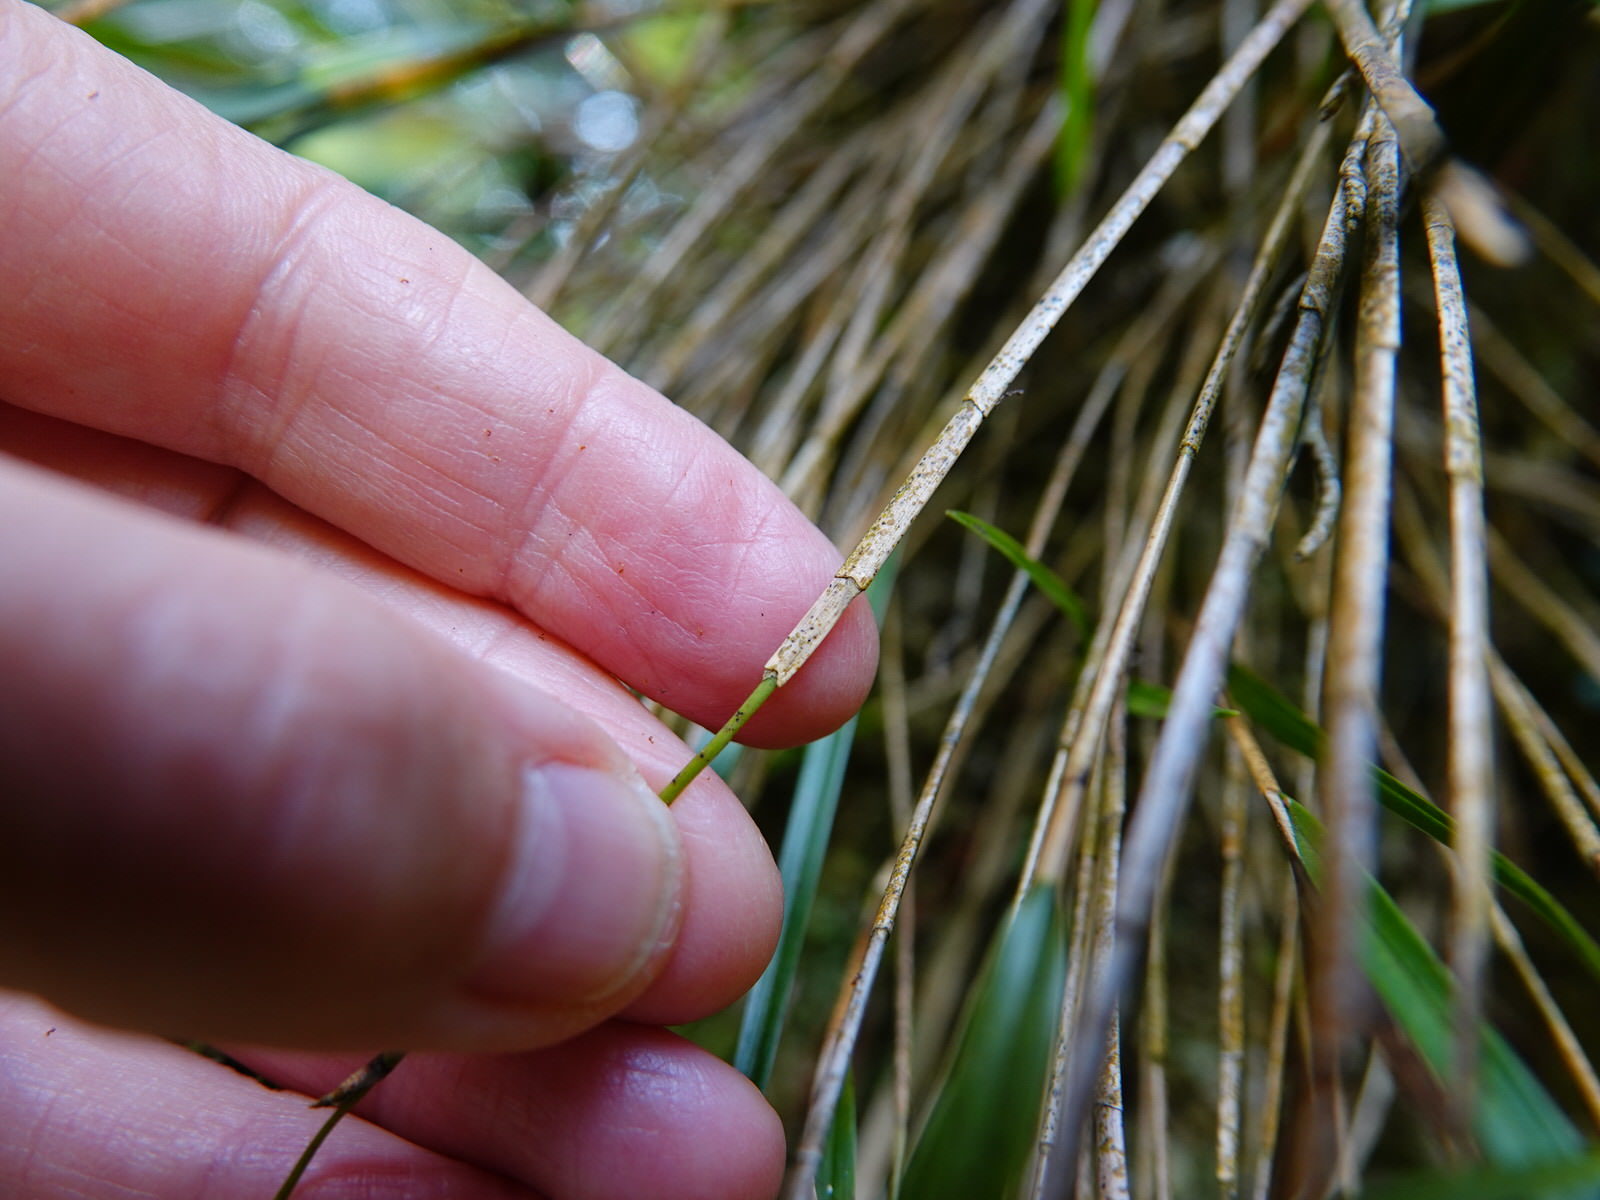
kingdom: Plantae
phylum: Tracheophyta
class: Liliopsida
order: Asparagales
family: Orchidaceae
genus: Earina
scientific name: Earina mucronata
